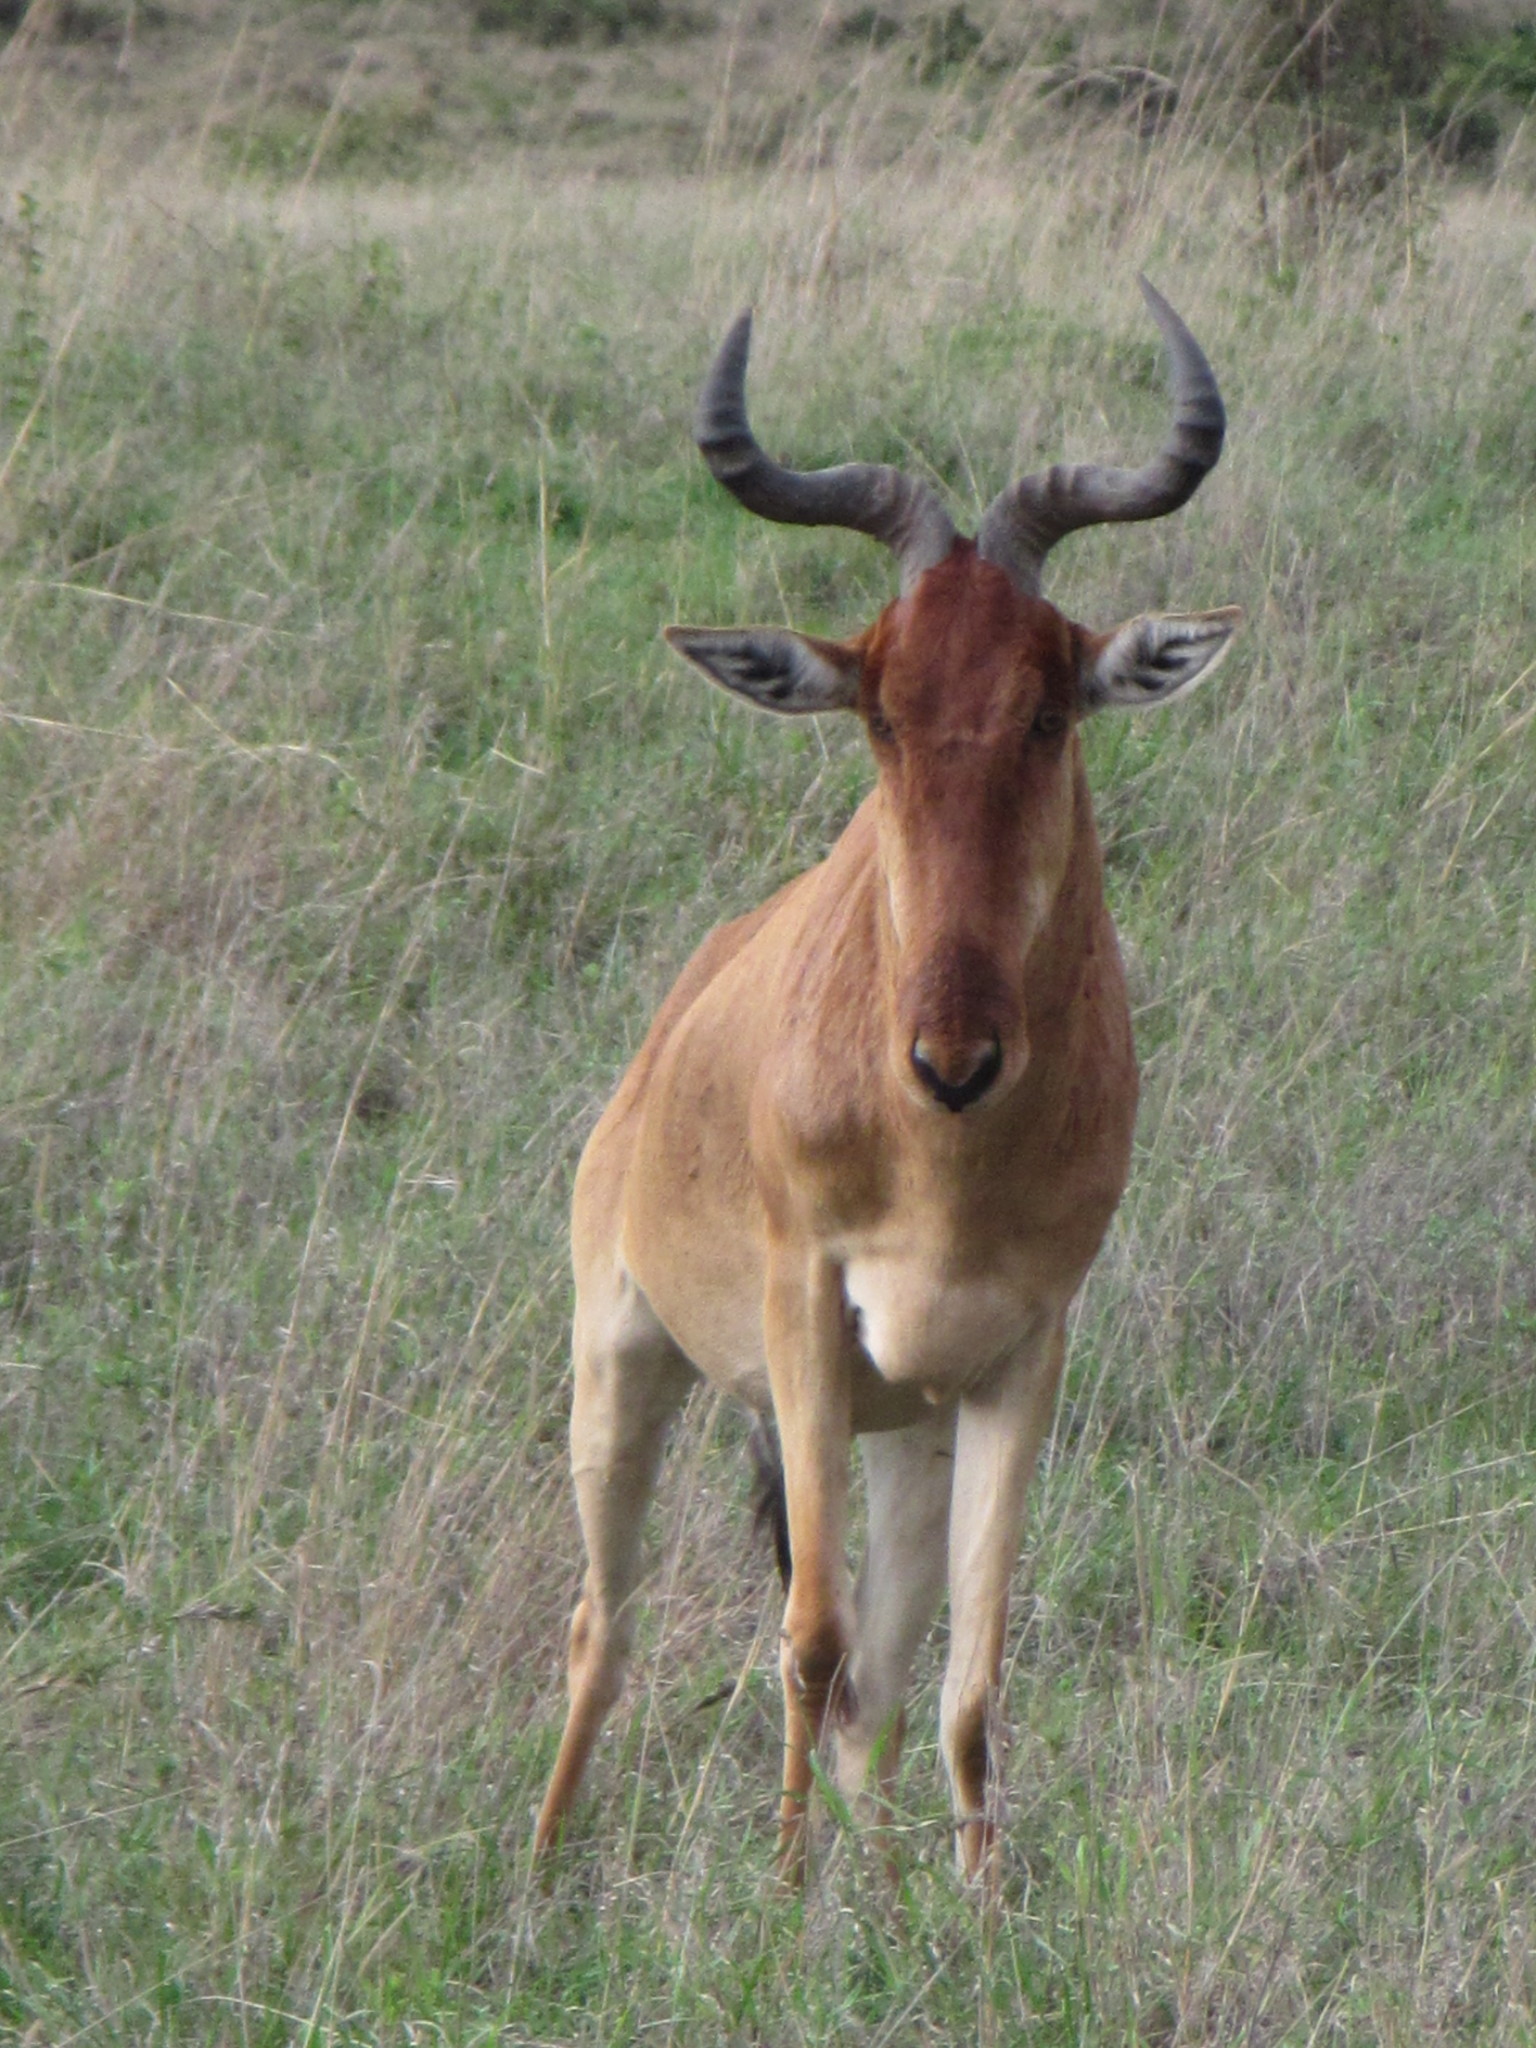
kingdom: Animalia
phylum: Chordata
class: Mammalia
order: Artiodactyla
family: Bovidae
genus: Alcelaphus
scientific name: Alcelaphus buselaphus
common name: Hartebeest
